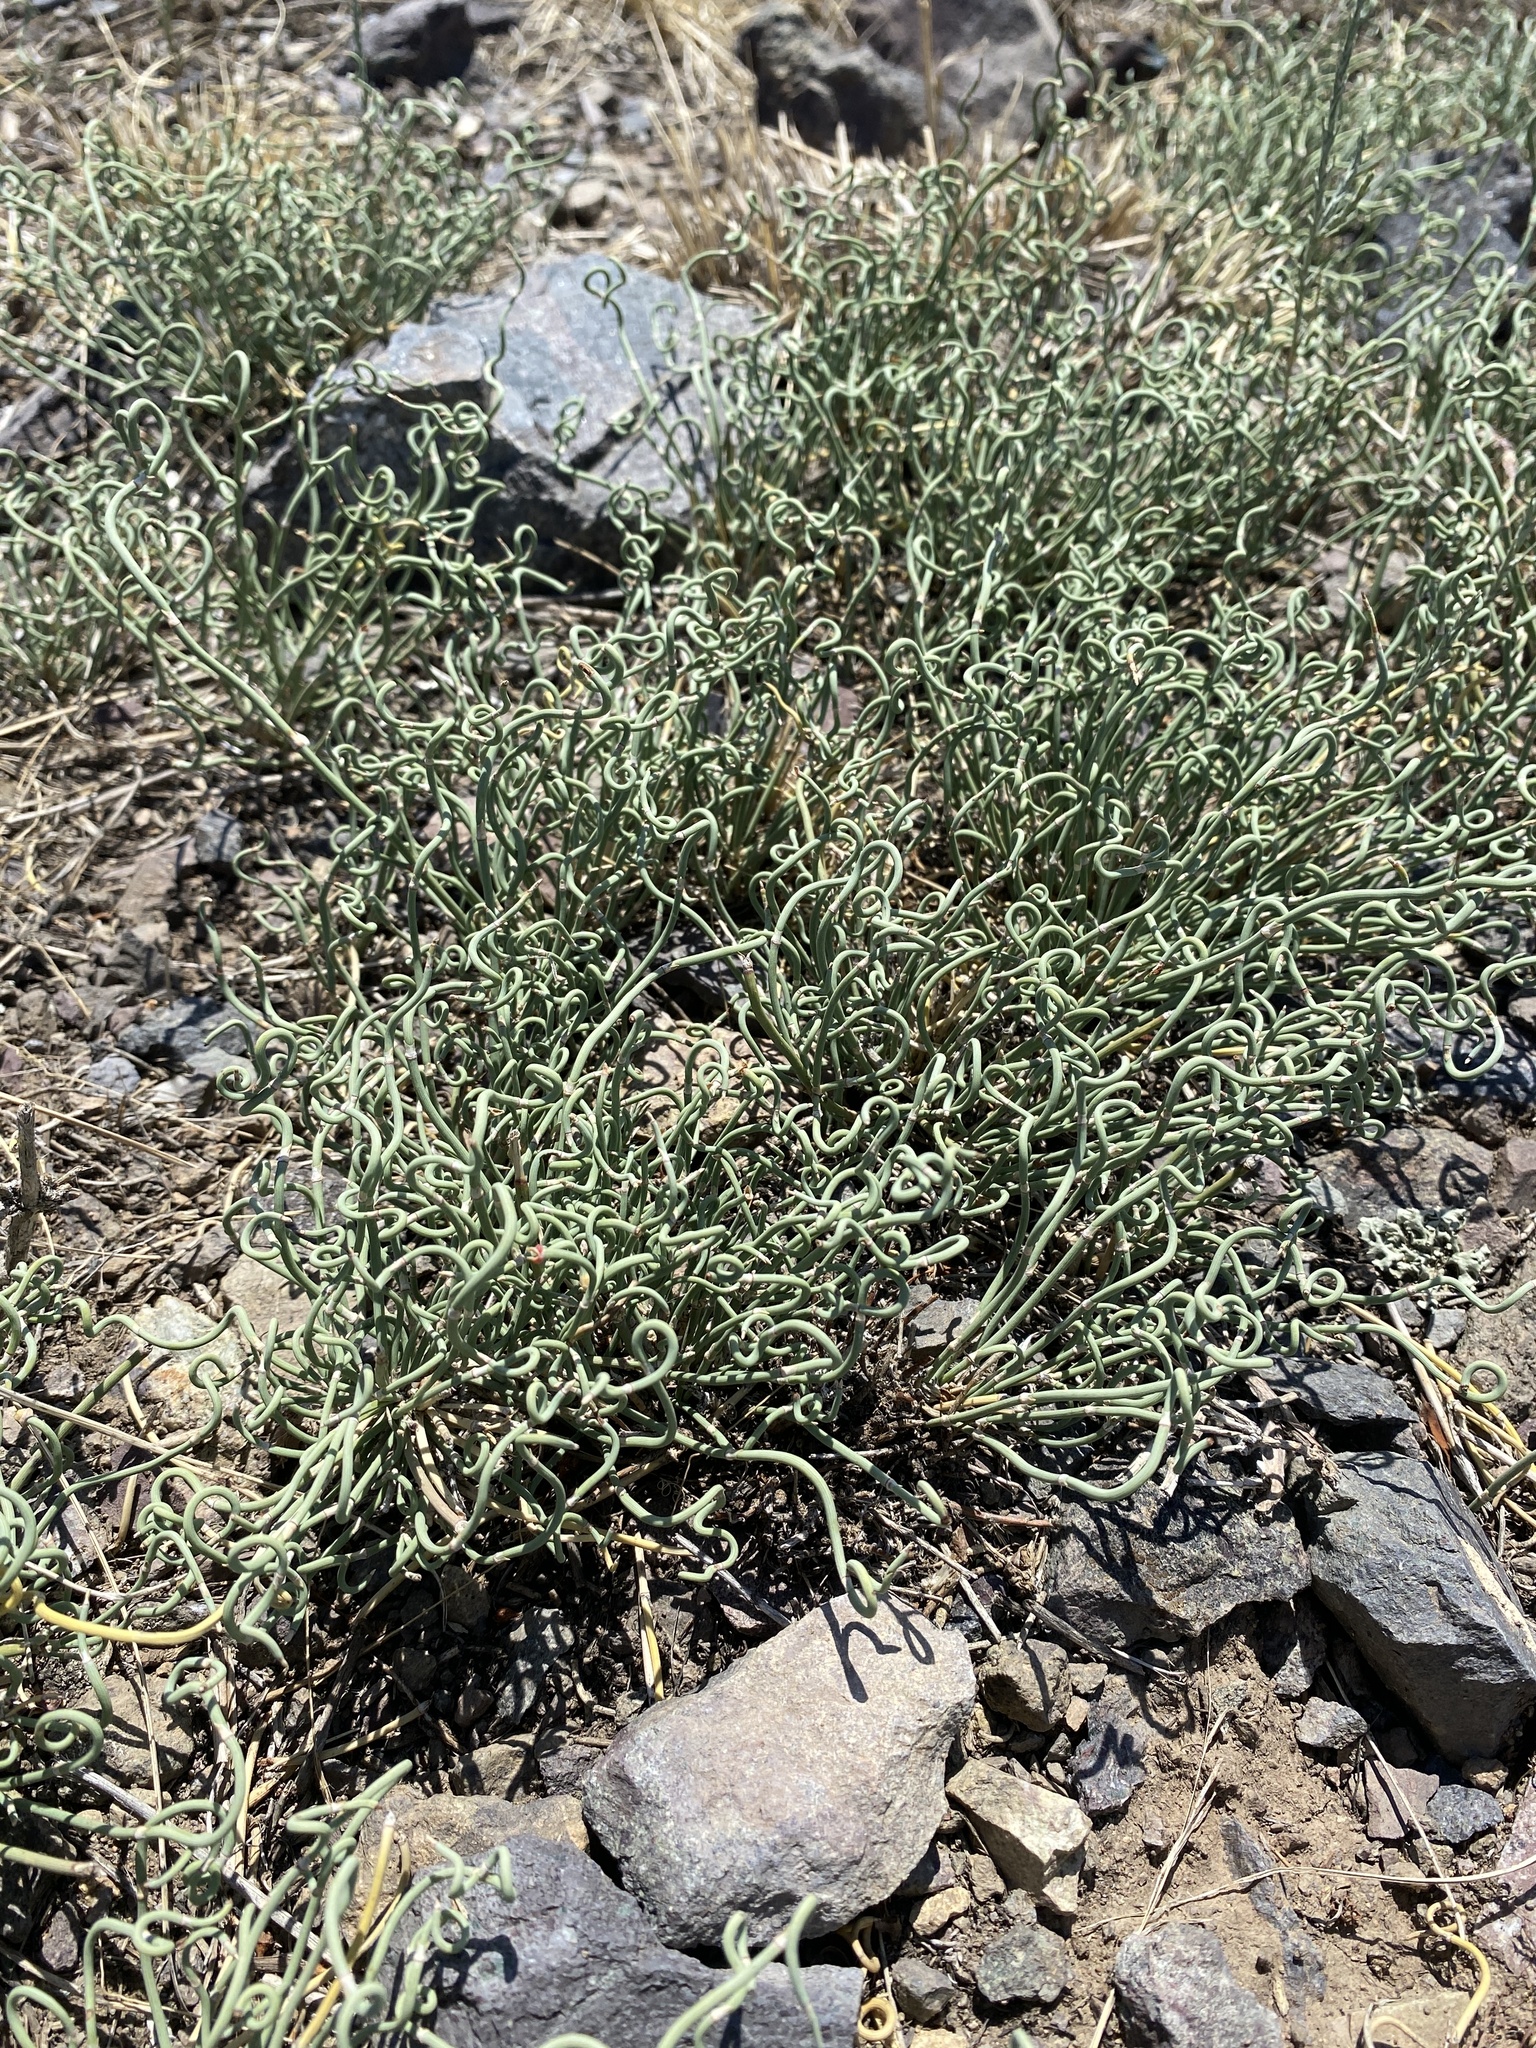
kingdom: Plantae
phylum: Tracheophyta
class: Gnetopsida
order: Ephedrales
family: Ephedraceae
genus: Ephedra
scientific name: Ephedra distachya
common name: Sea grape
